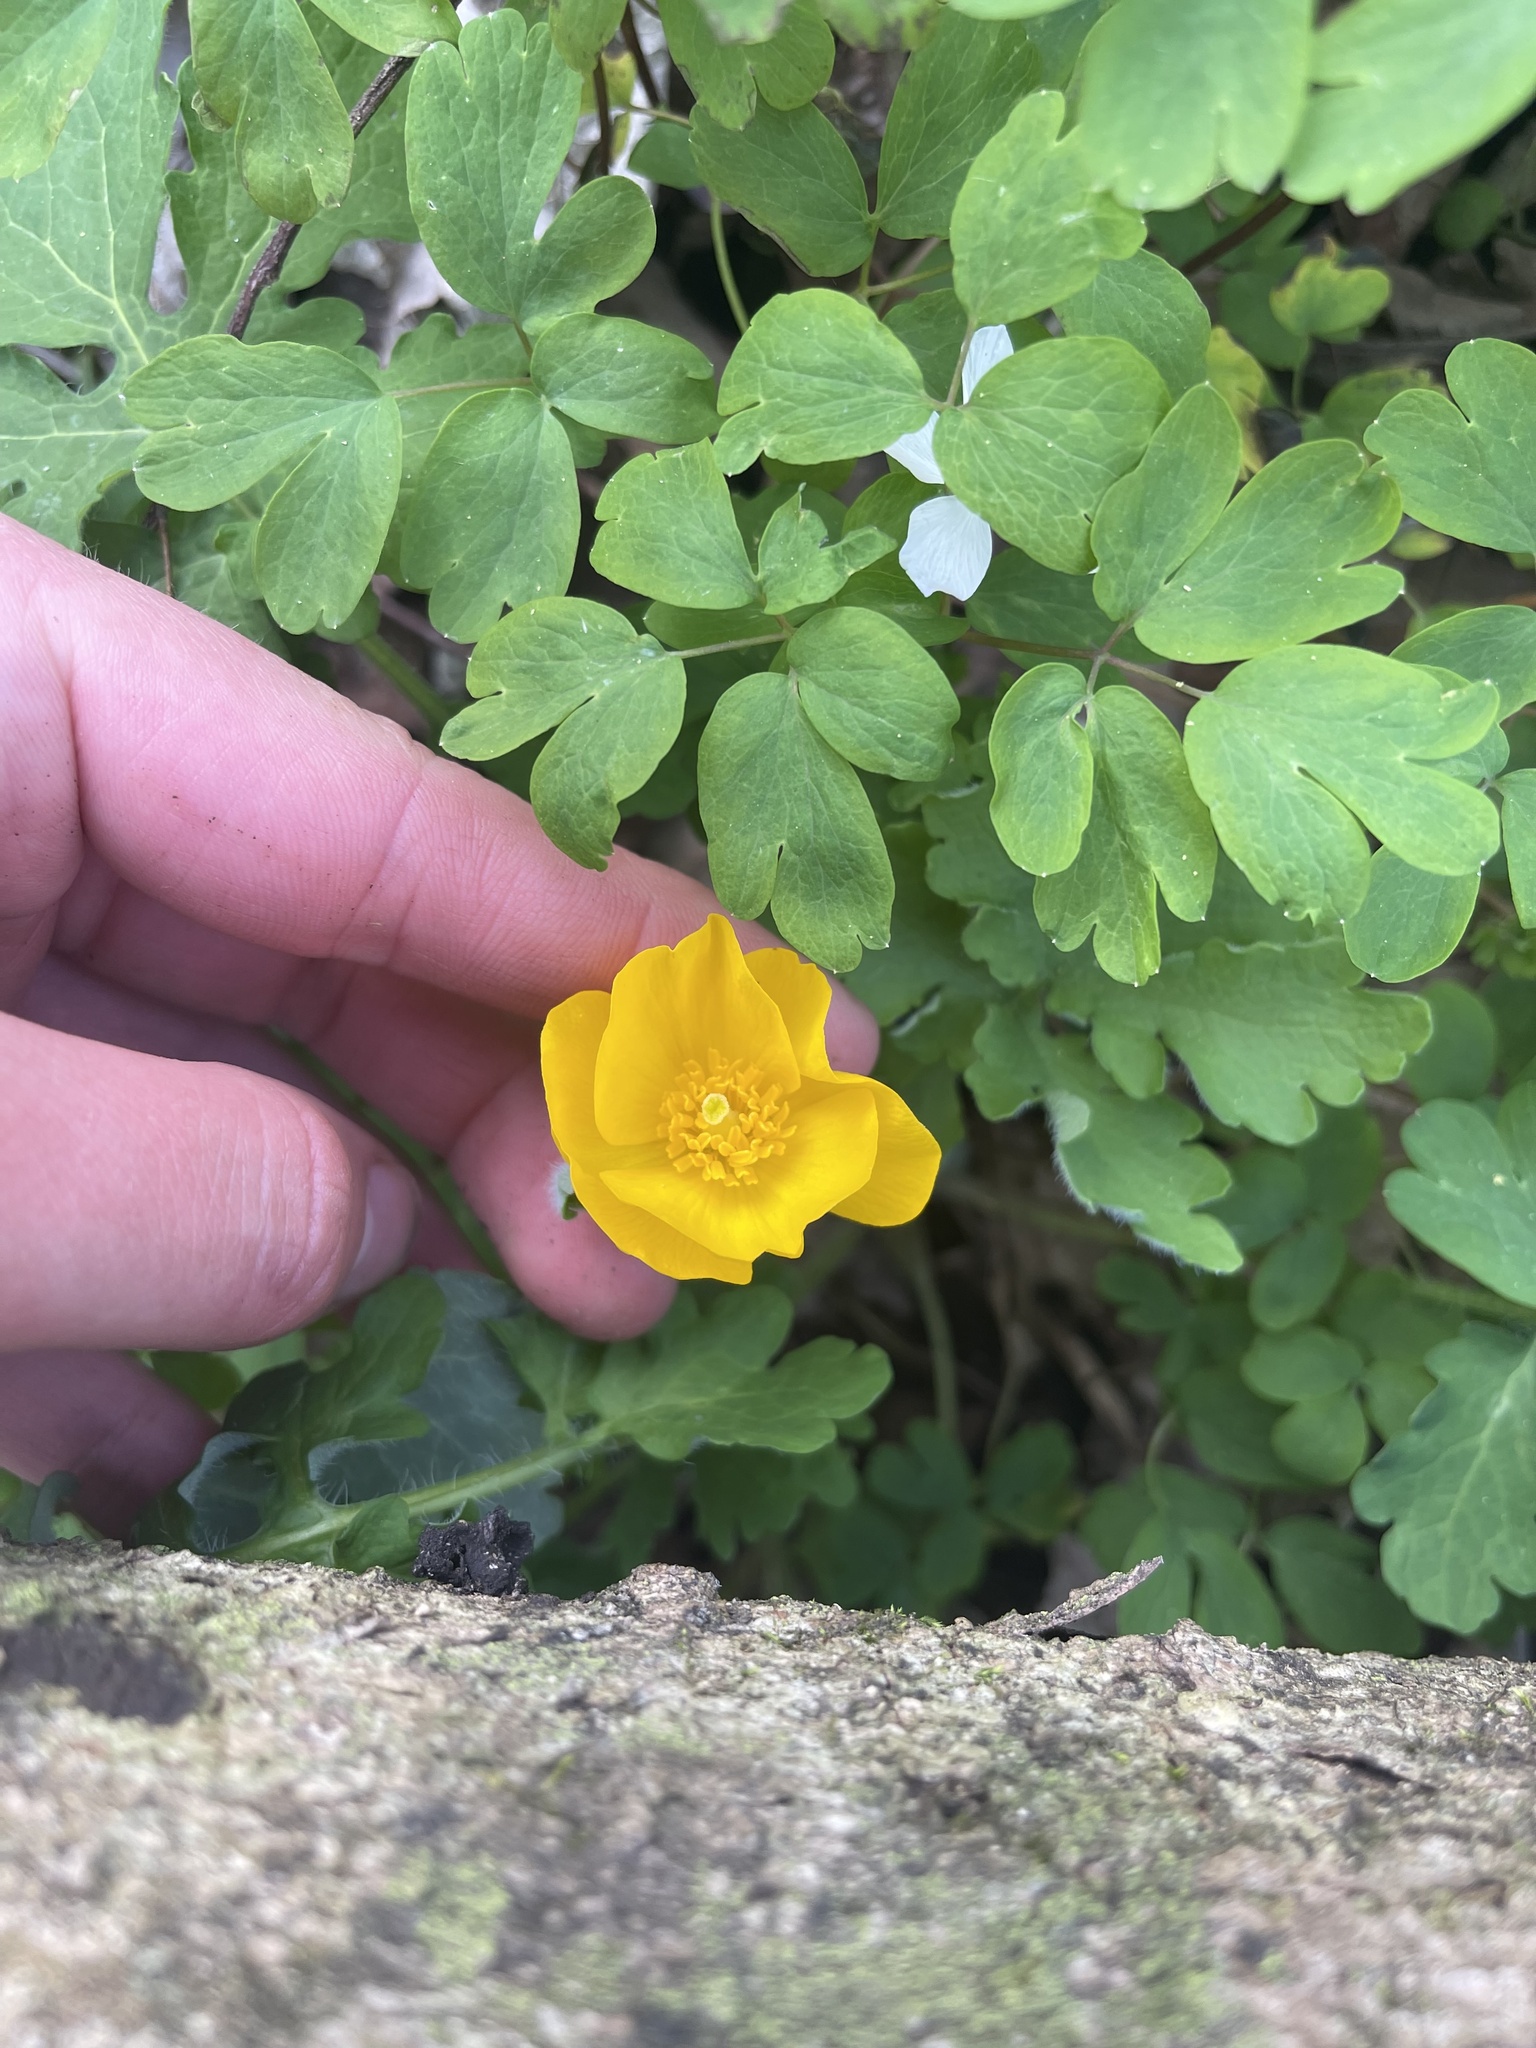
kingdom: Plantae
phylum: Tracheophyta
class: Magnoliopsida
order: Ranunculales
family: Papaveraceae
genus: Stylophorum
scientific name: Stylophorum diphyllum
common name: Celandine poppy
